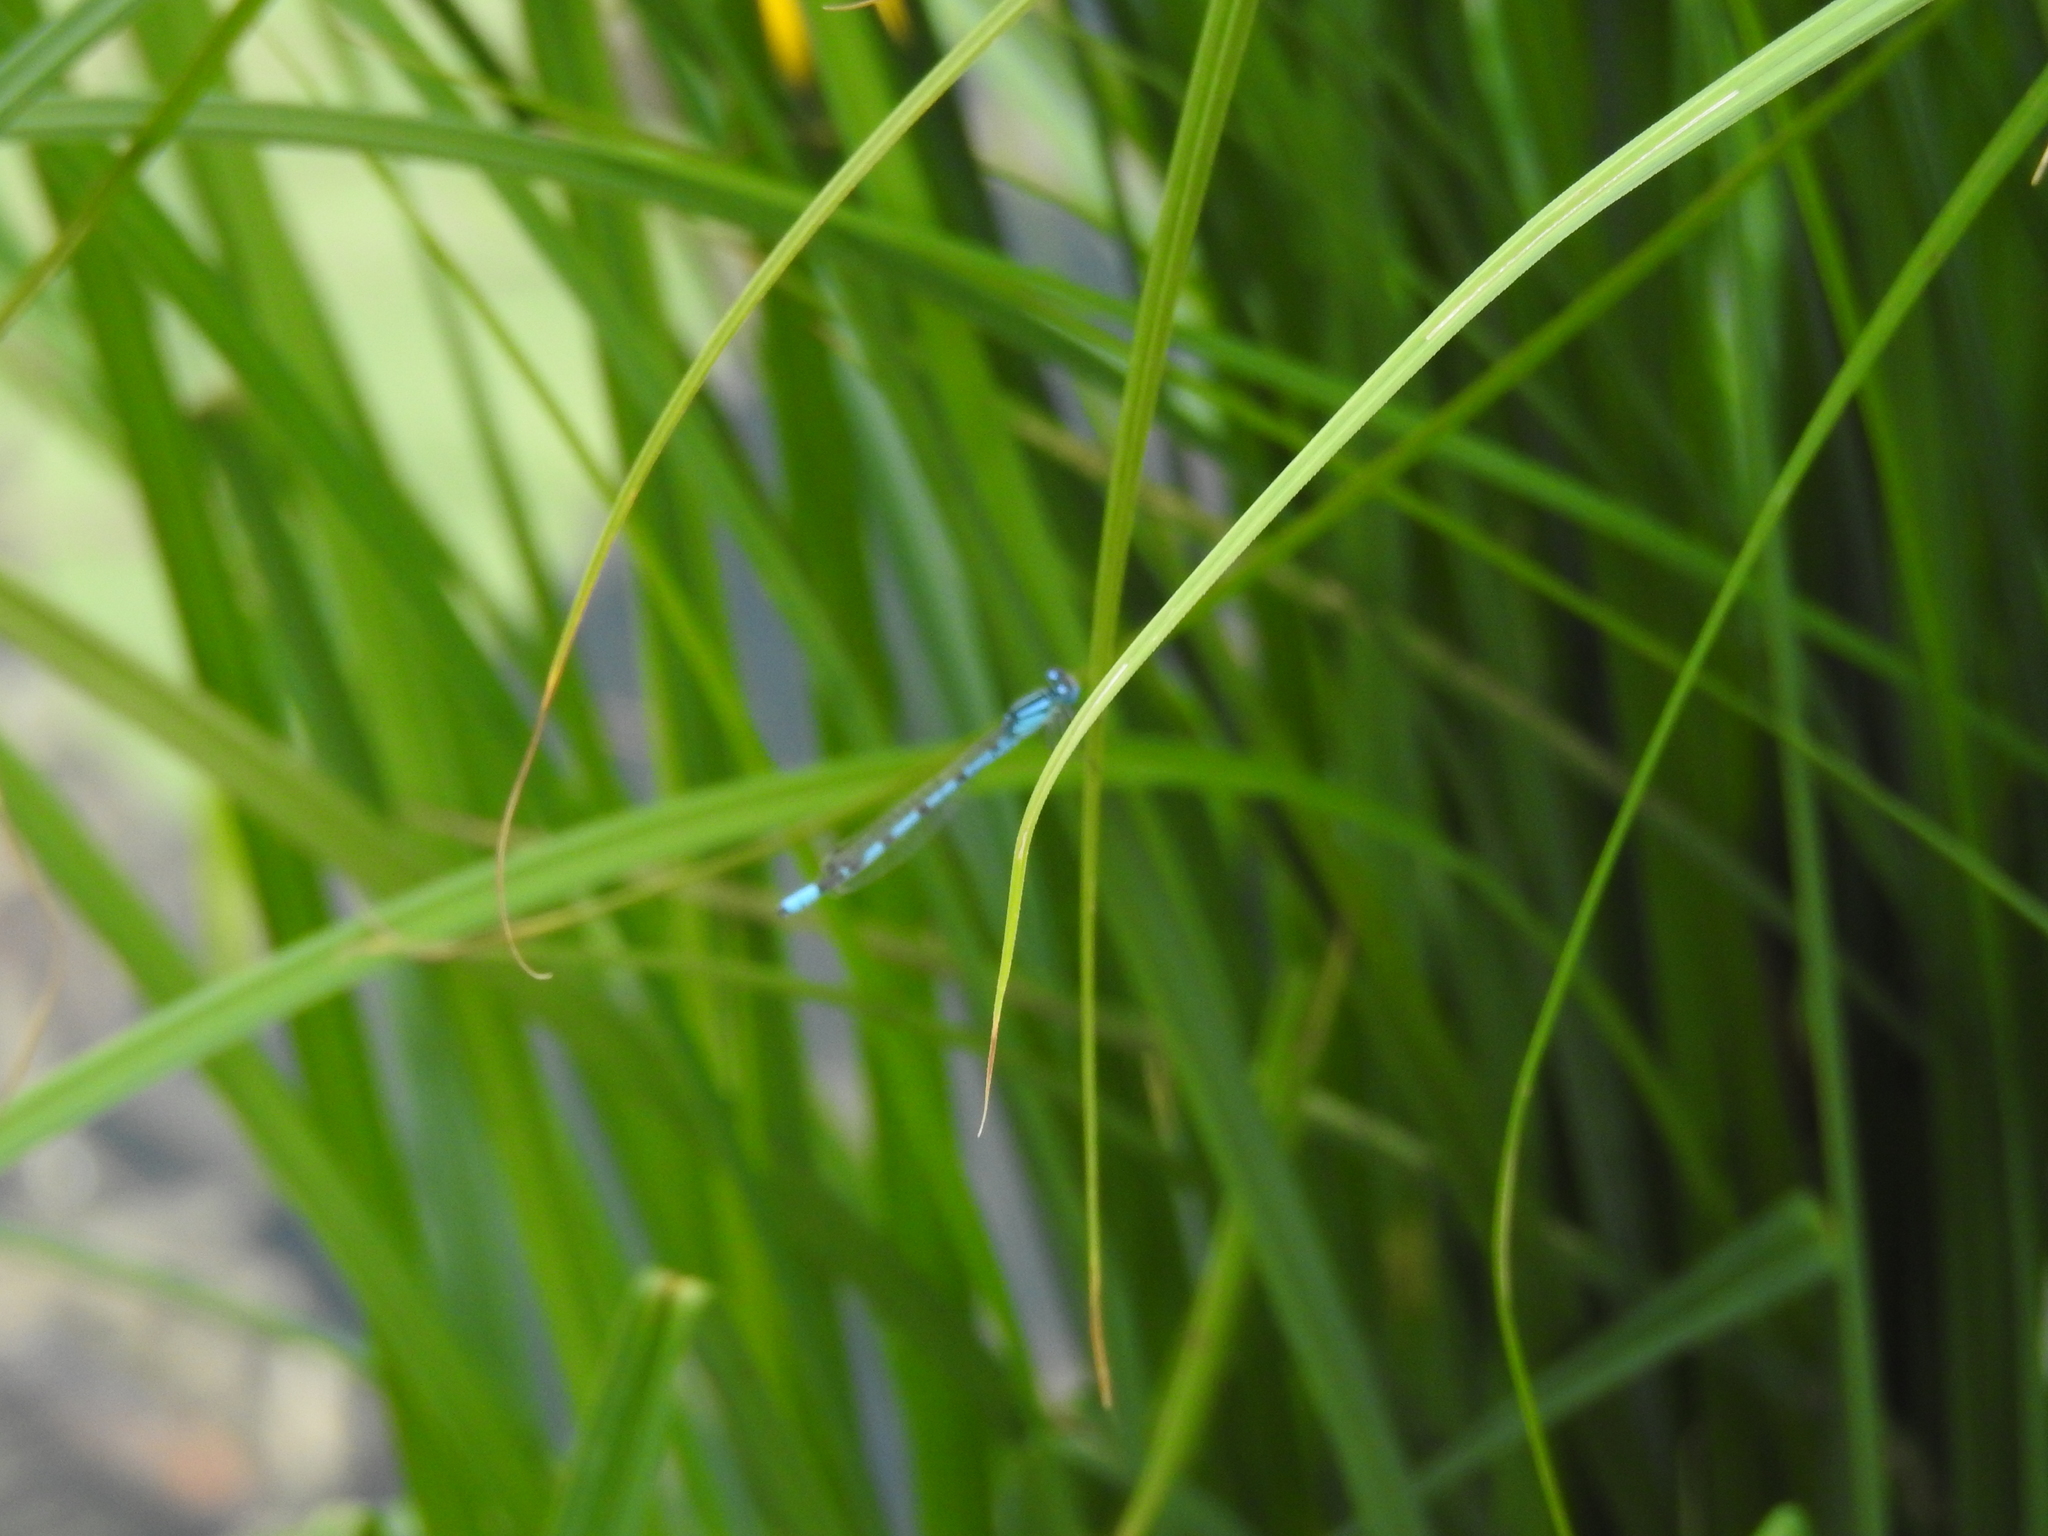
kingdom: Animalia
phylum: Arthropoda
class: Insecta
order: Odonata
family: Coenagrionidae
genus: Enallagma
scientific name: Enallagma cyathigerum
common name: Common blue damselfly
